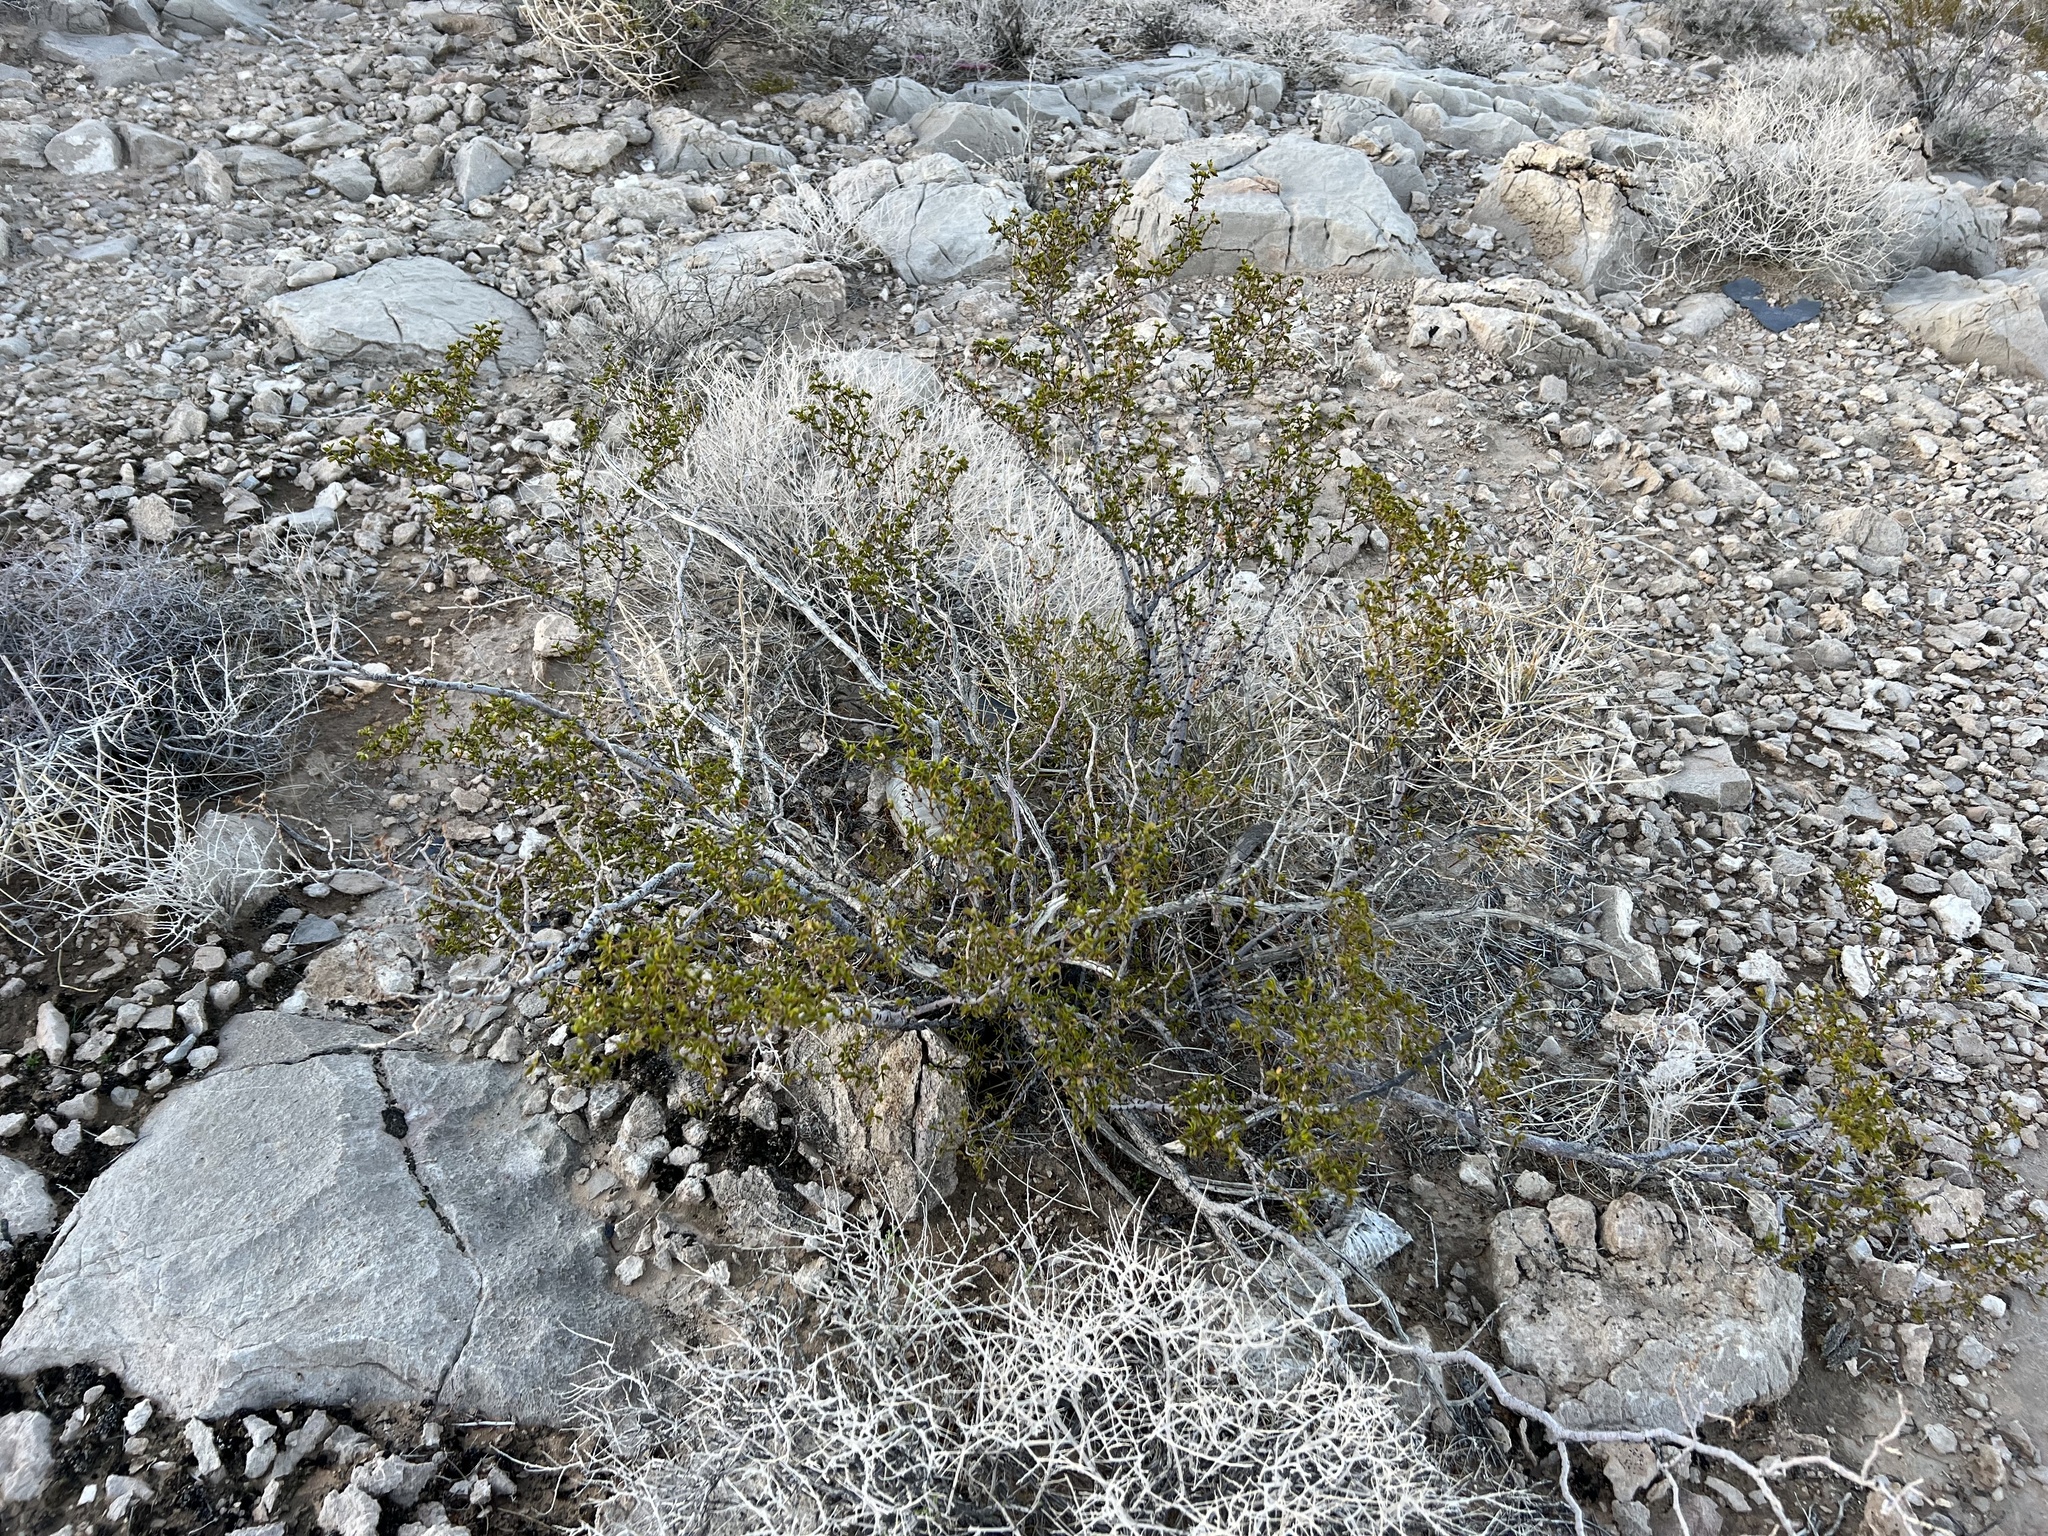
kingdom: Plantae
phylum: Tracheophyta
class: Magnoliopsida
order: Zygophyllales
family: Zygophyllaceae
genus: Larrea
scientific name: Larrea tridentata
